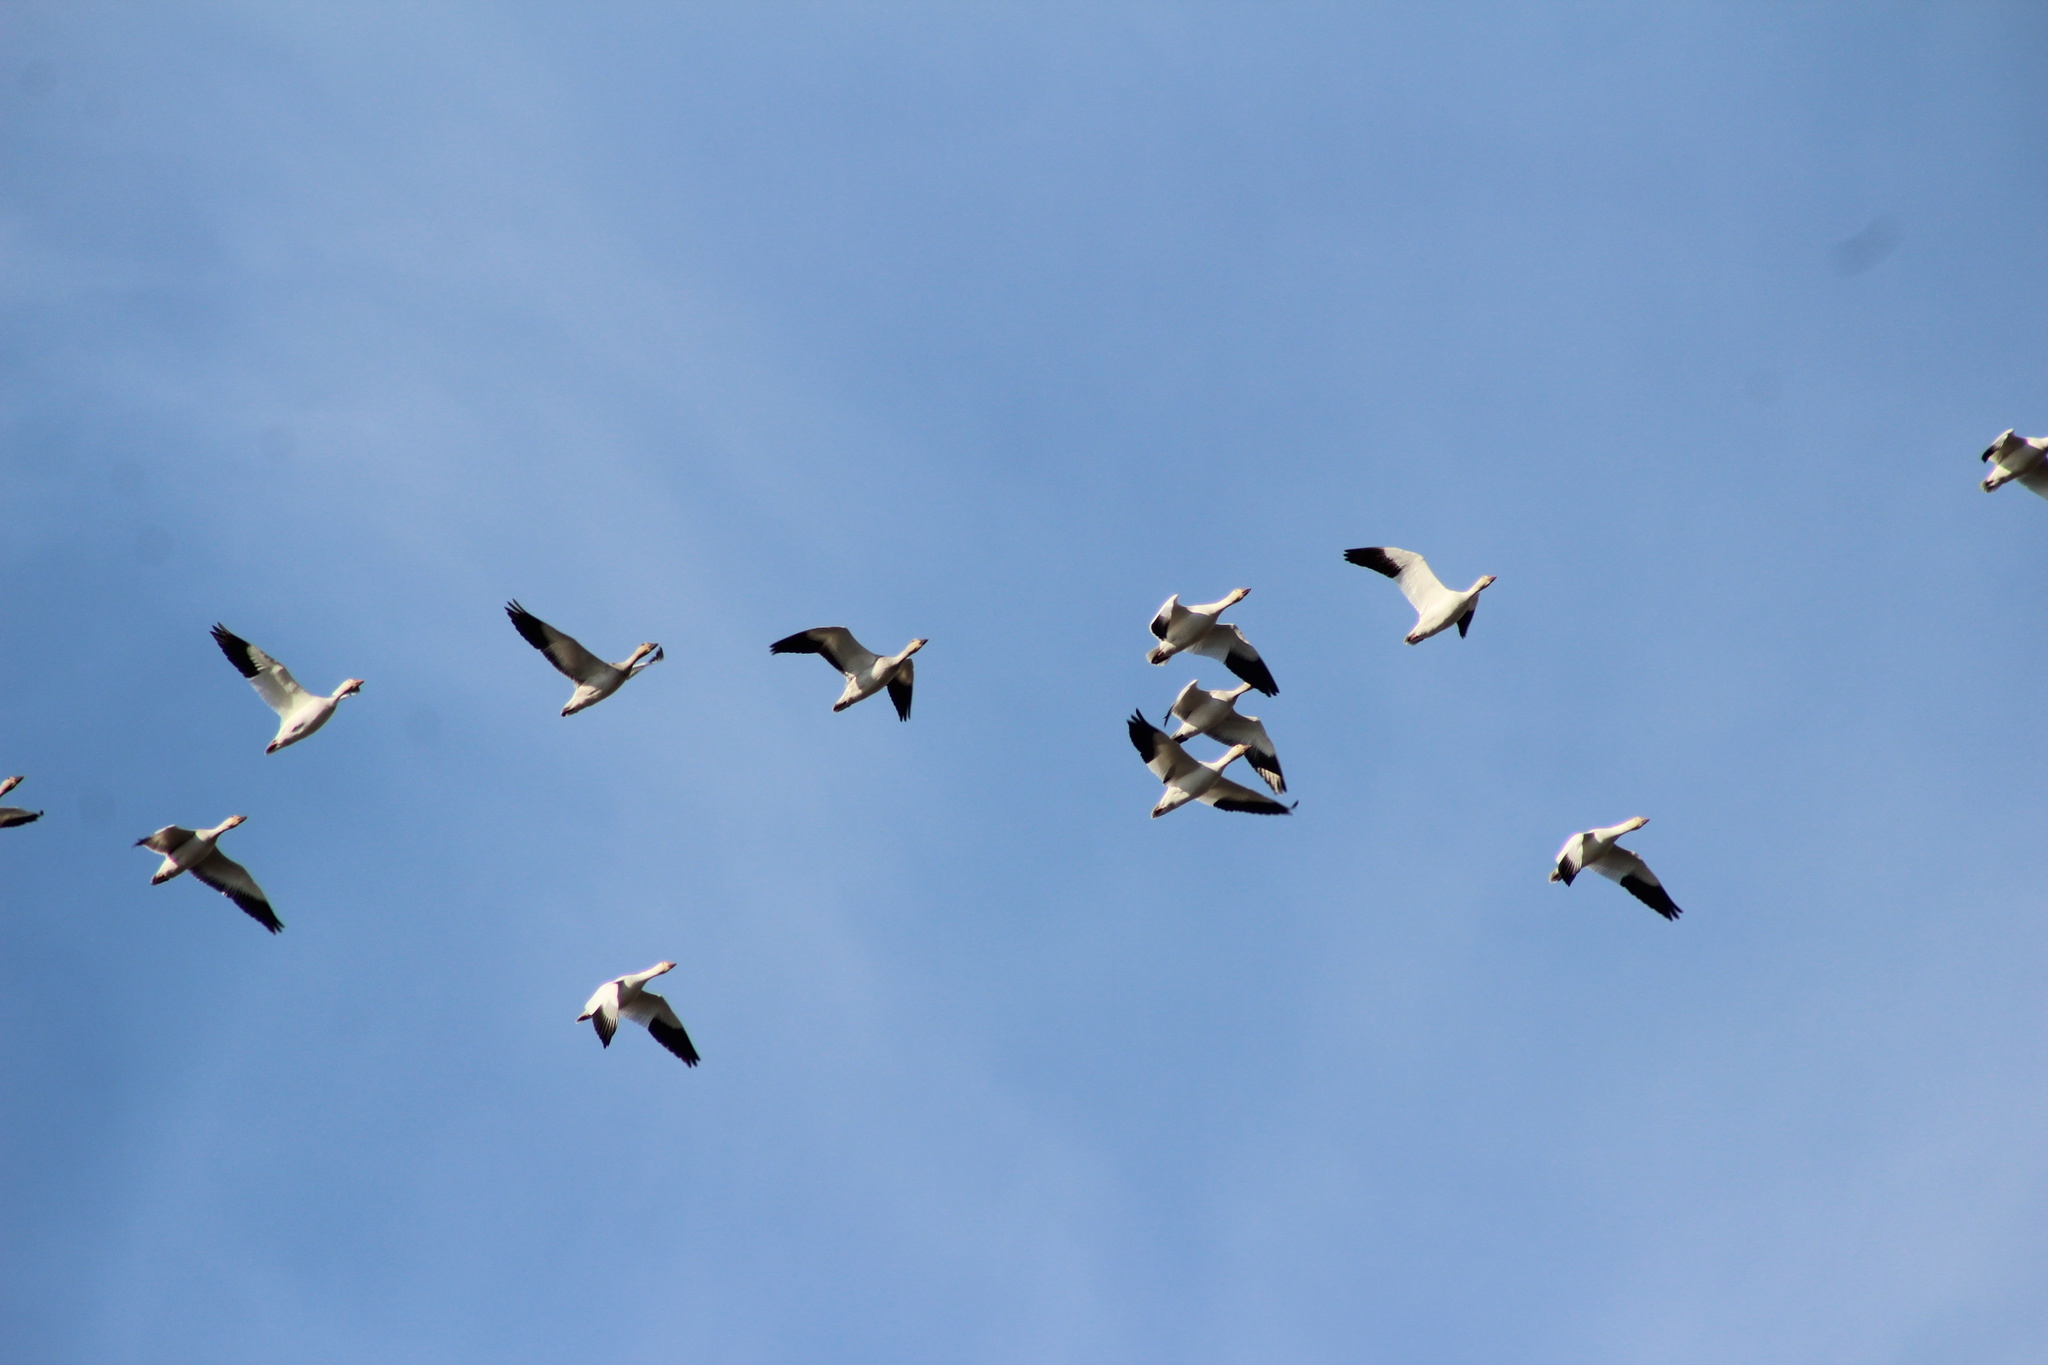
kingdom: Animalia
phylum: Chordata
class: Aves
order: Anseriformes
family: Anatidae
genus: Anser
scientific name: Anser caerulescens
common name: Snow goose
